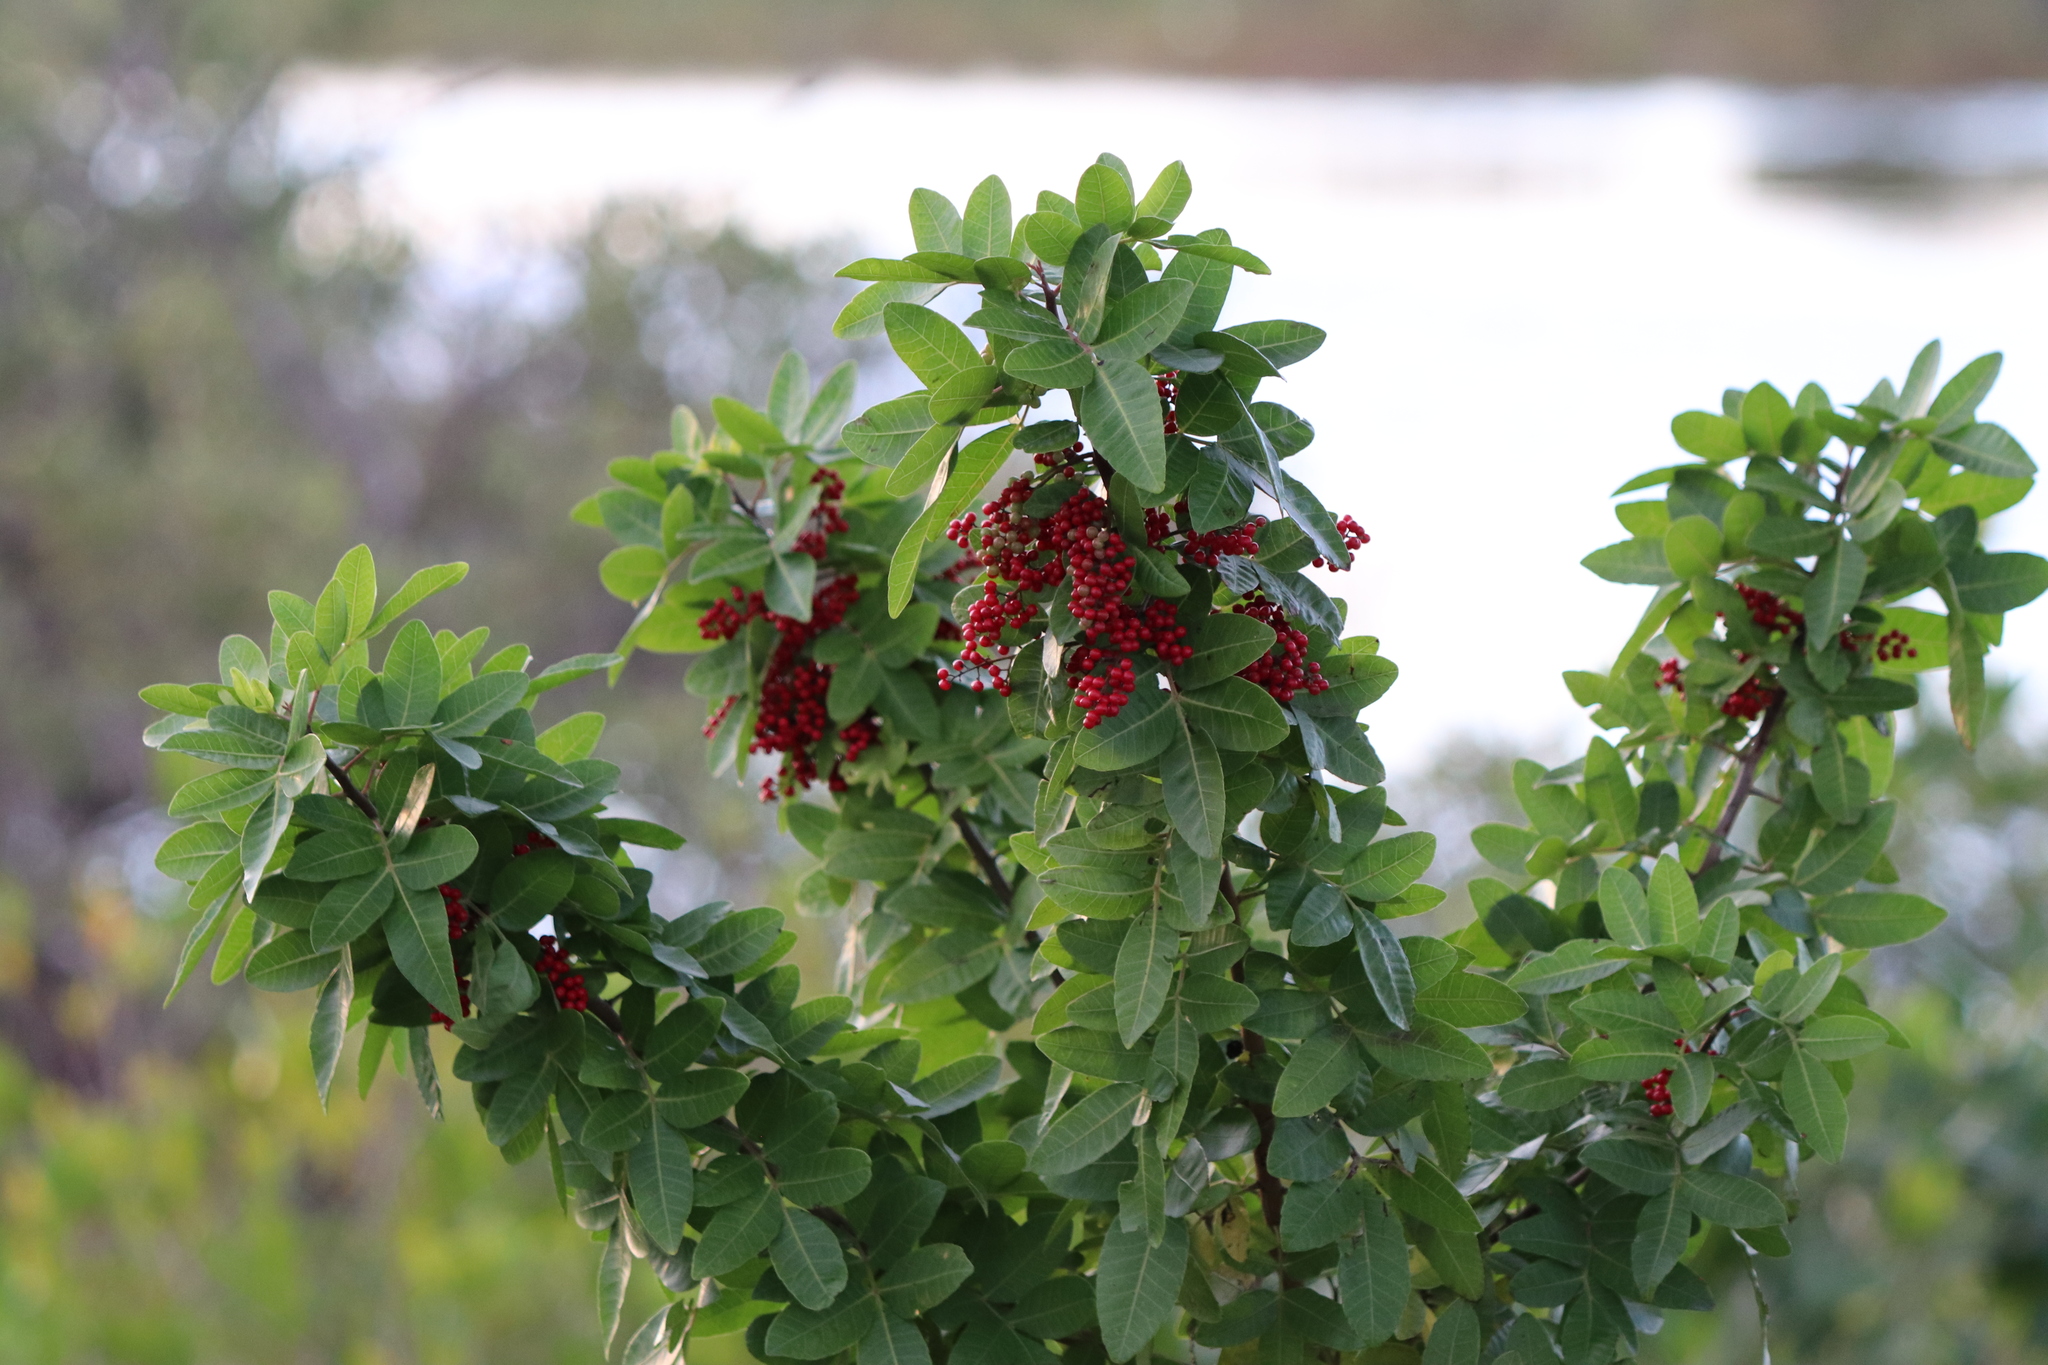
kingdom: Plantae
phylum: Tracheophyta
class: Magnoliopsida
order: Sapindales
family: Anacardiaceae
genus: Schinus
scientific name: Schinus terebinthifolia
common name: Brazilian peppertree
